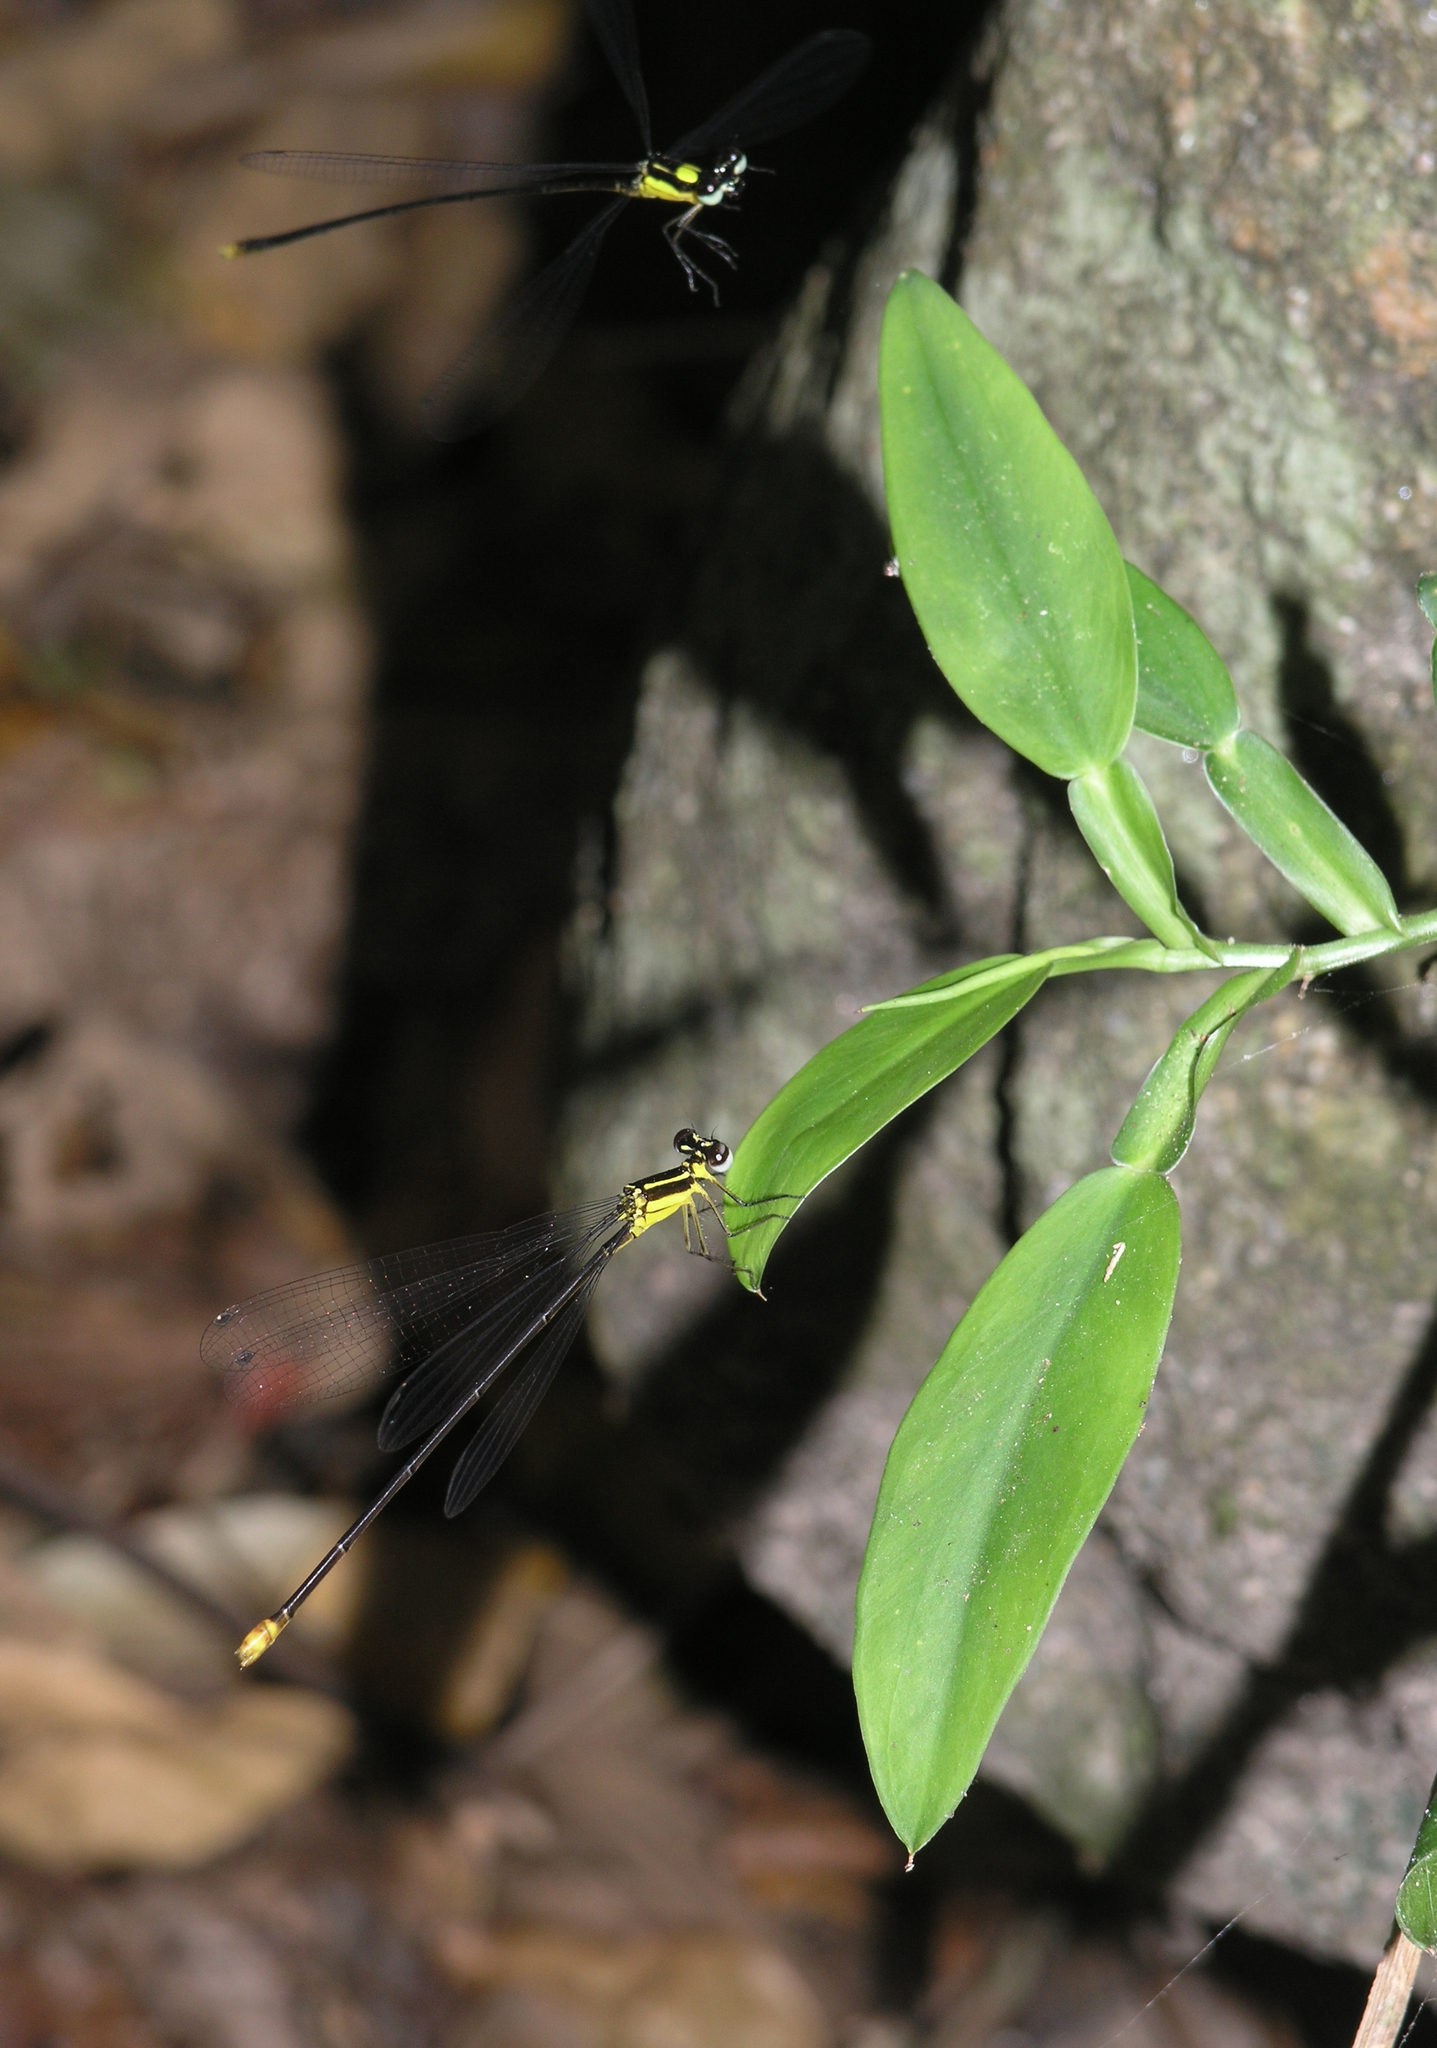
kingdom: Animalia
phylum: Arthropoda
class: Insecta
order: Odonata
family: Platycnemididae
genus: Coeliccia
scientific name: Coeliccia yamasakii
